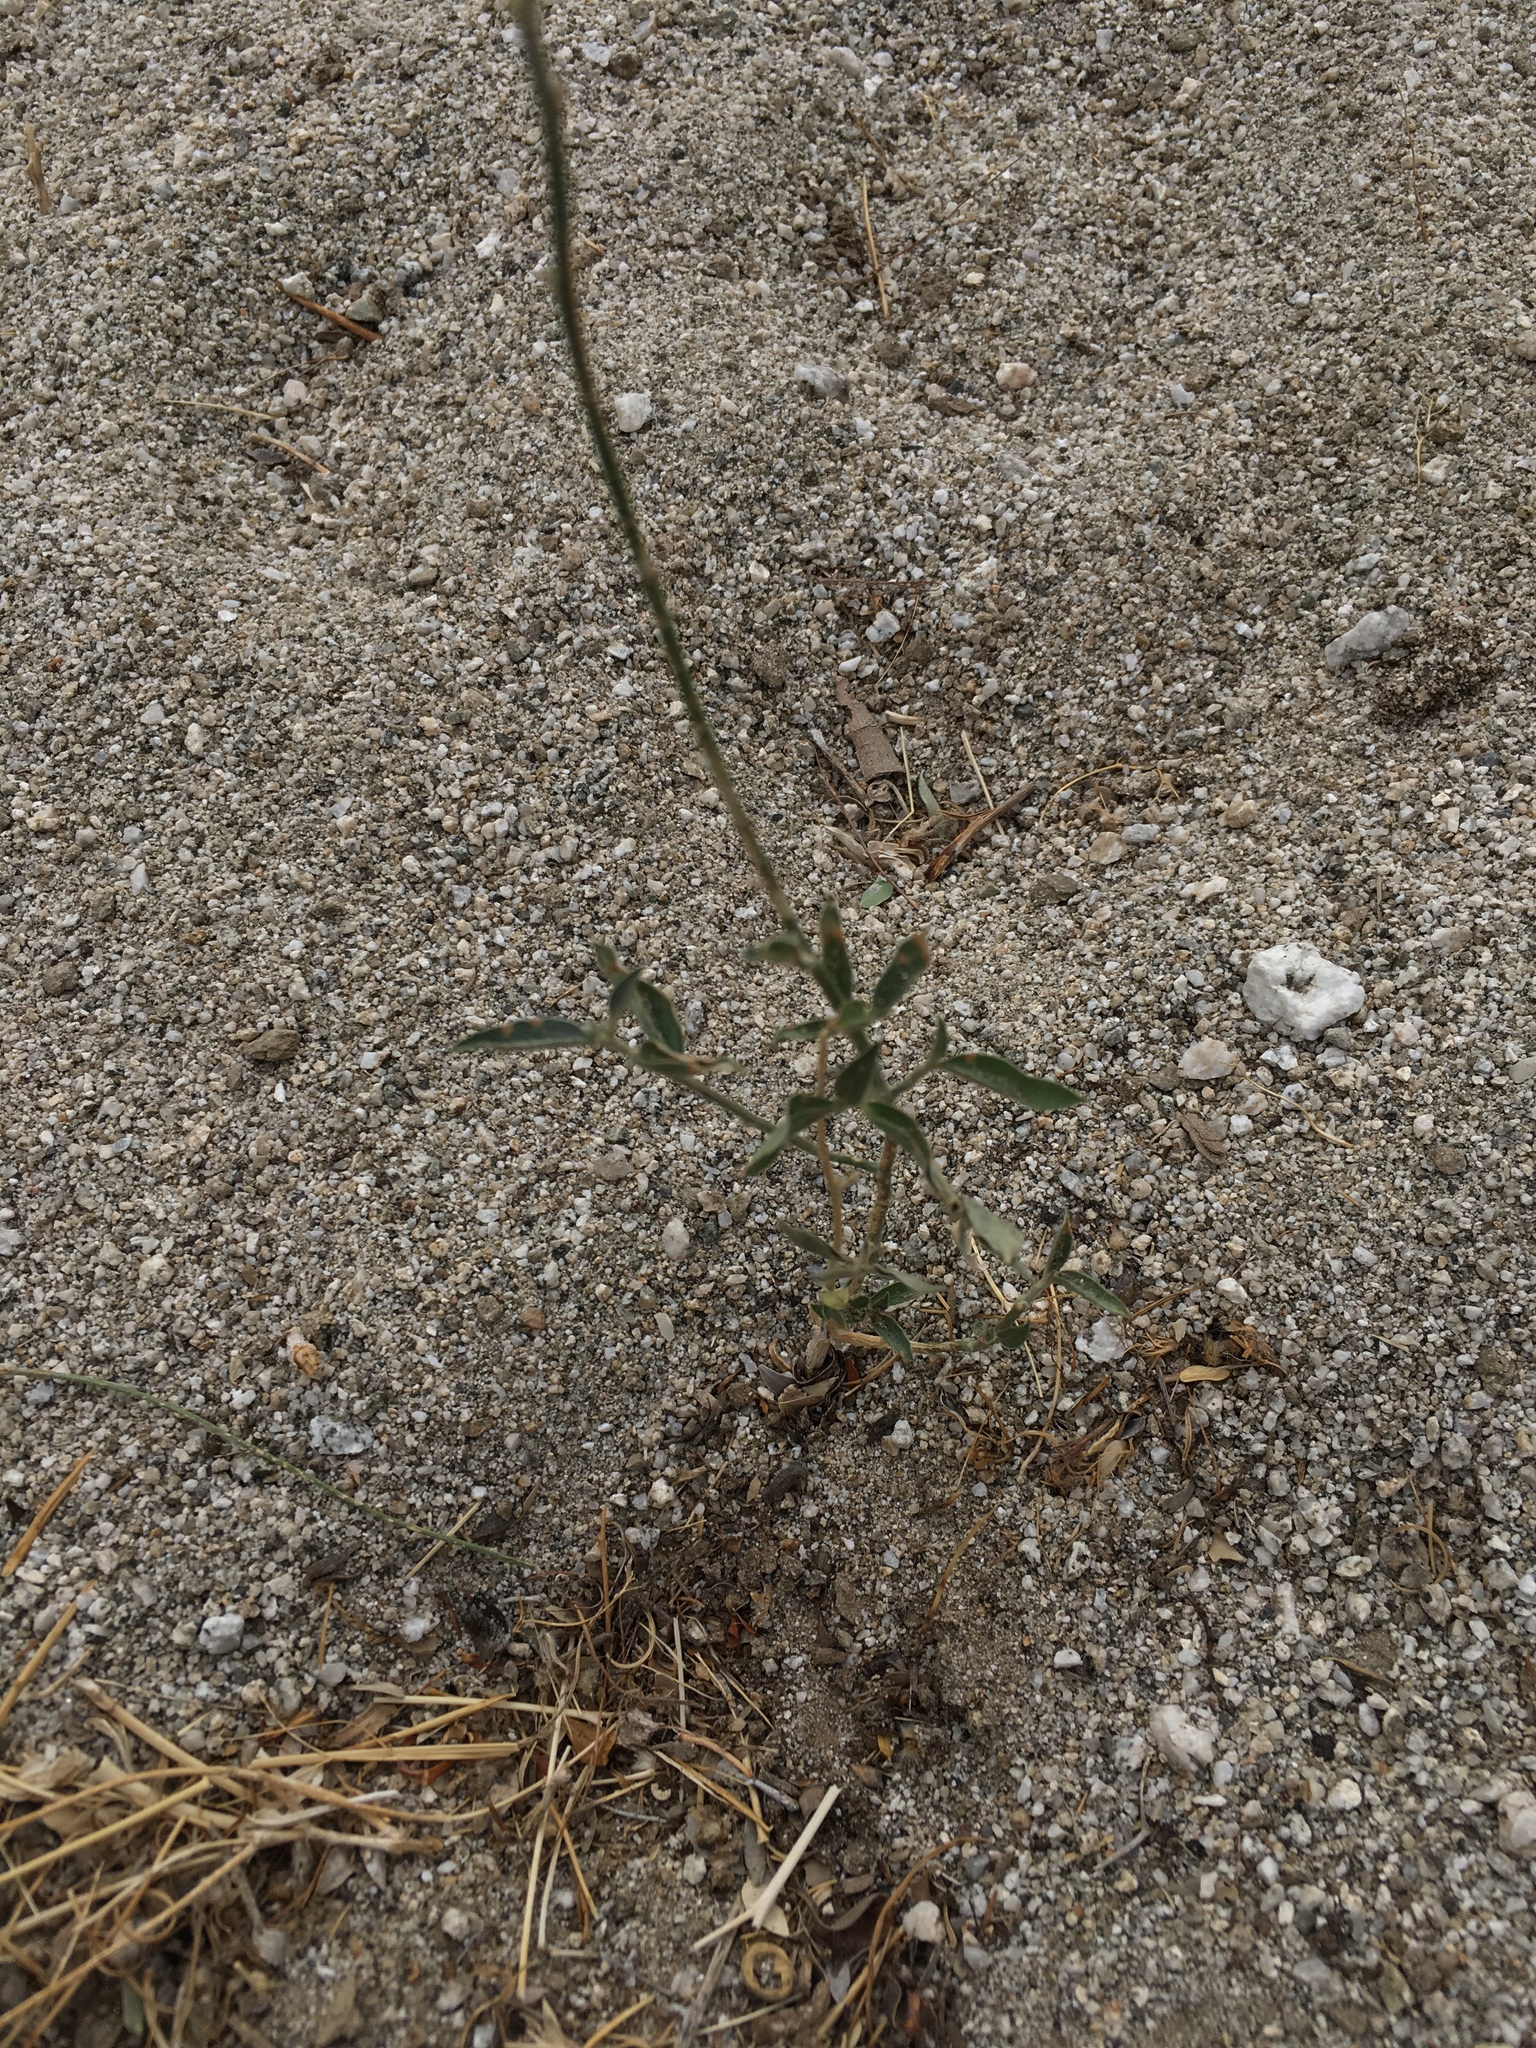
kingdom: Plantae
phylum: Tracheophyta
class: Magnoliopsida
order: Malpighiales
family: Euphorbiaceae
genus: Ditaxis
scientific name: Ditaxis lanceolata
